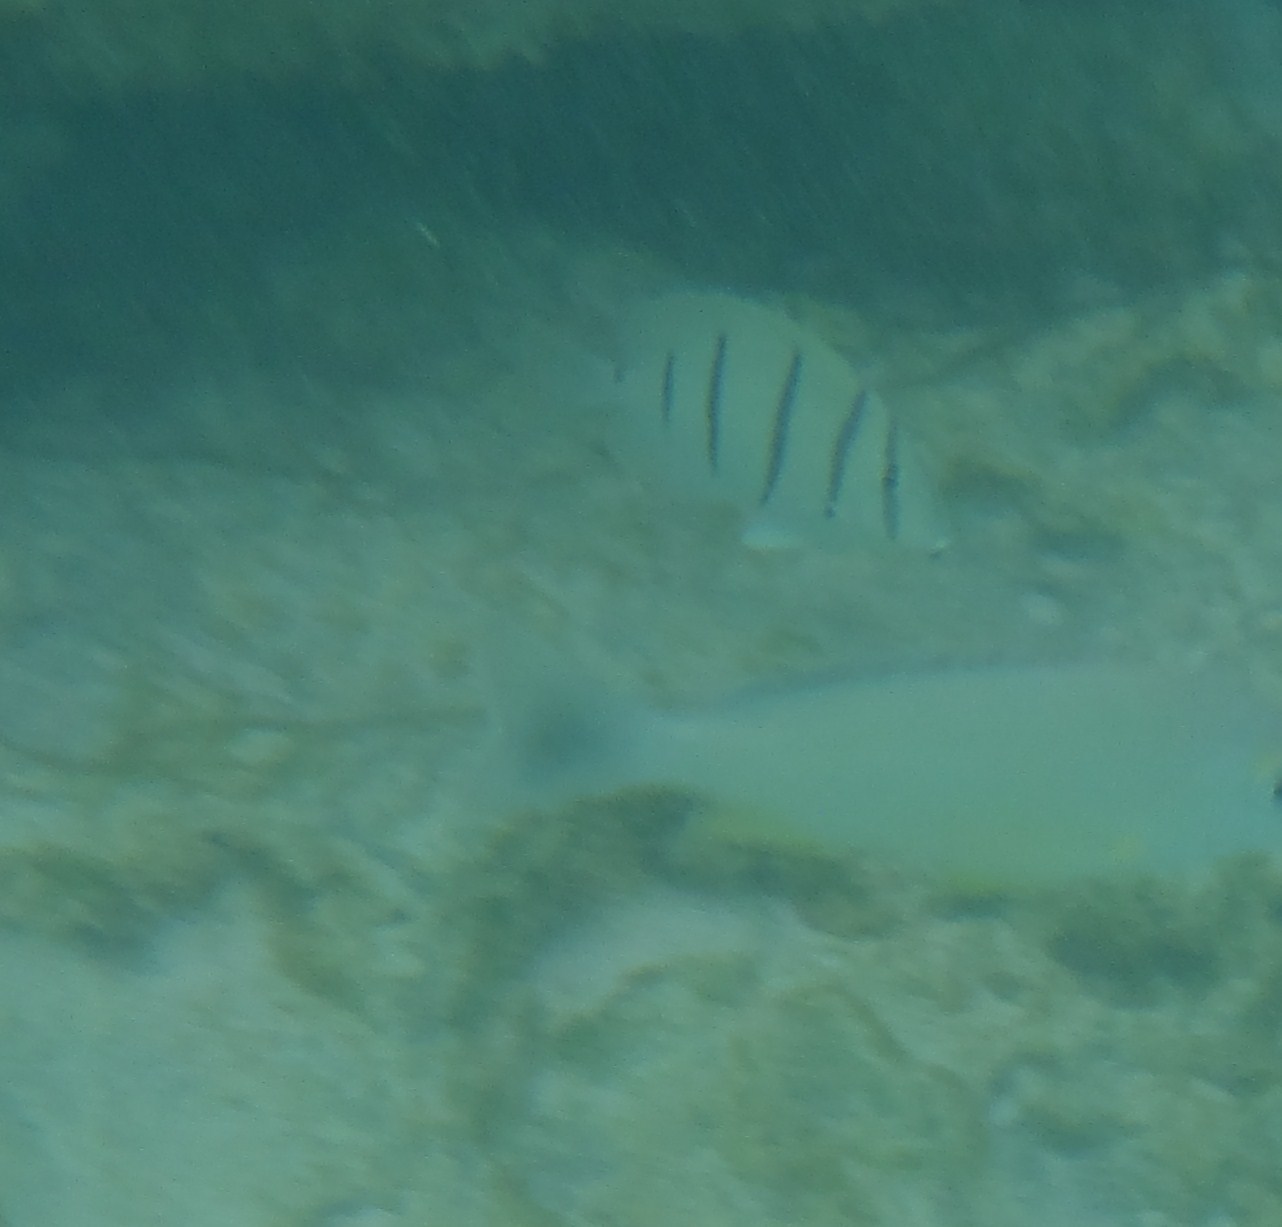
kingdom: Animalia
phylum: Chordata
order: Perciformes
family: Acanthuridae
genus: Acanthurus
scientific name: Acanthurus triostegus
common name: Convict surgeonfish
